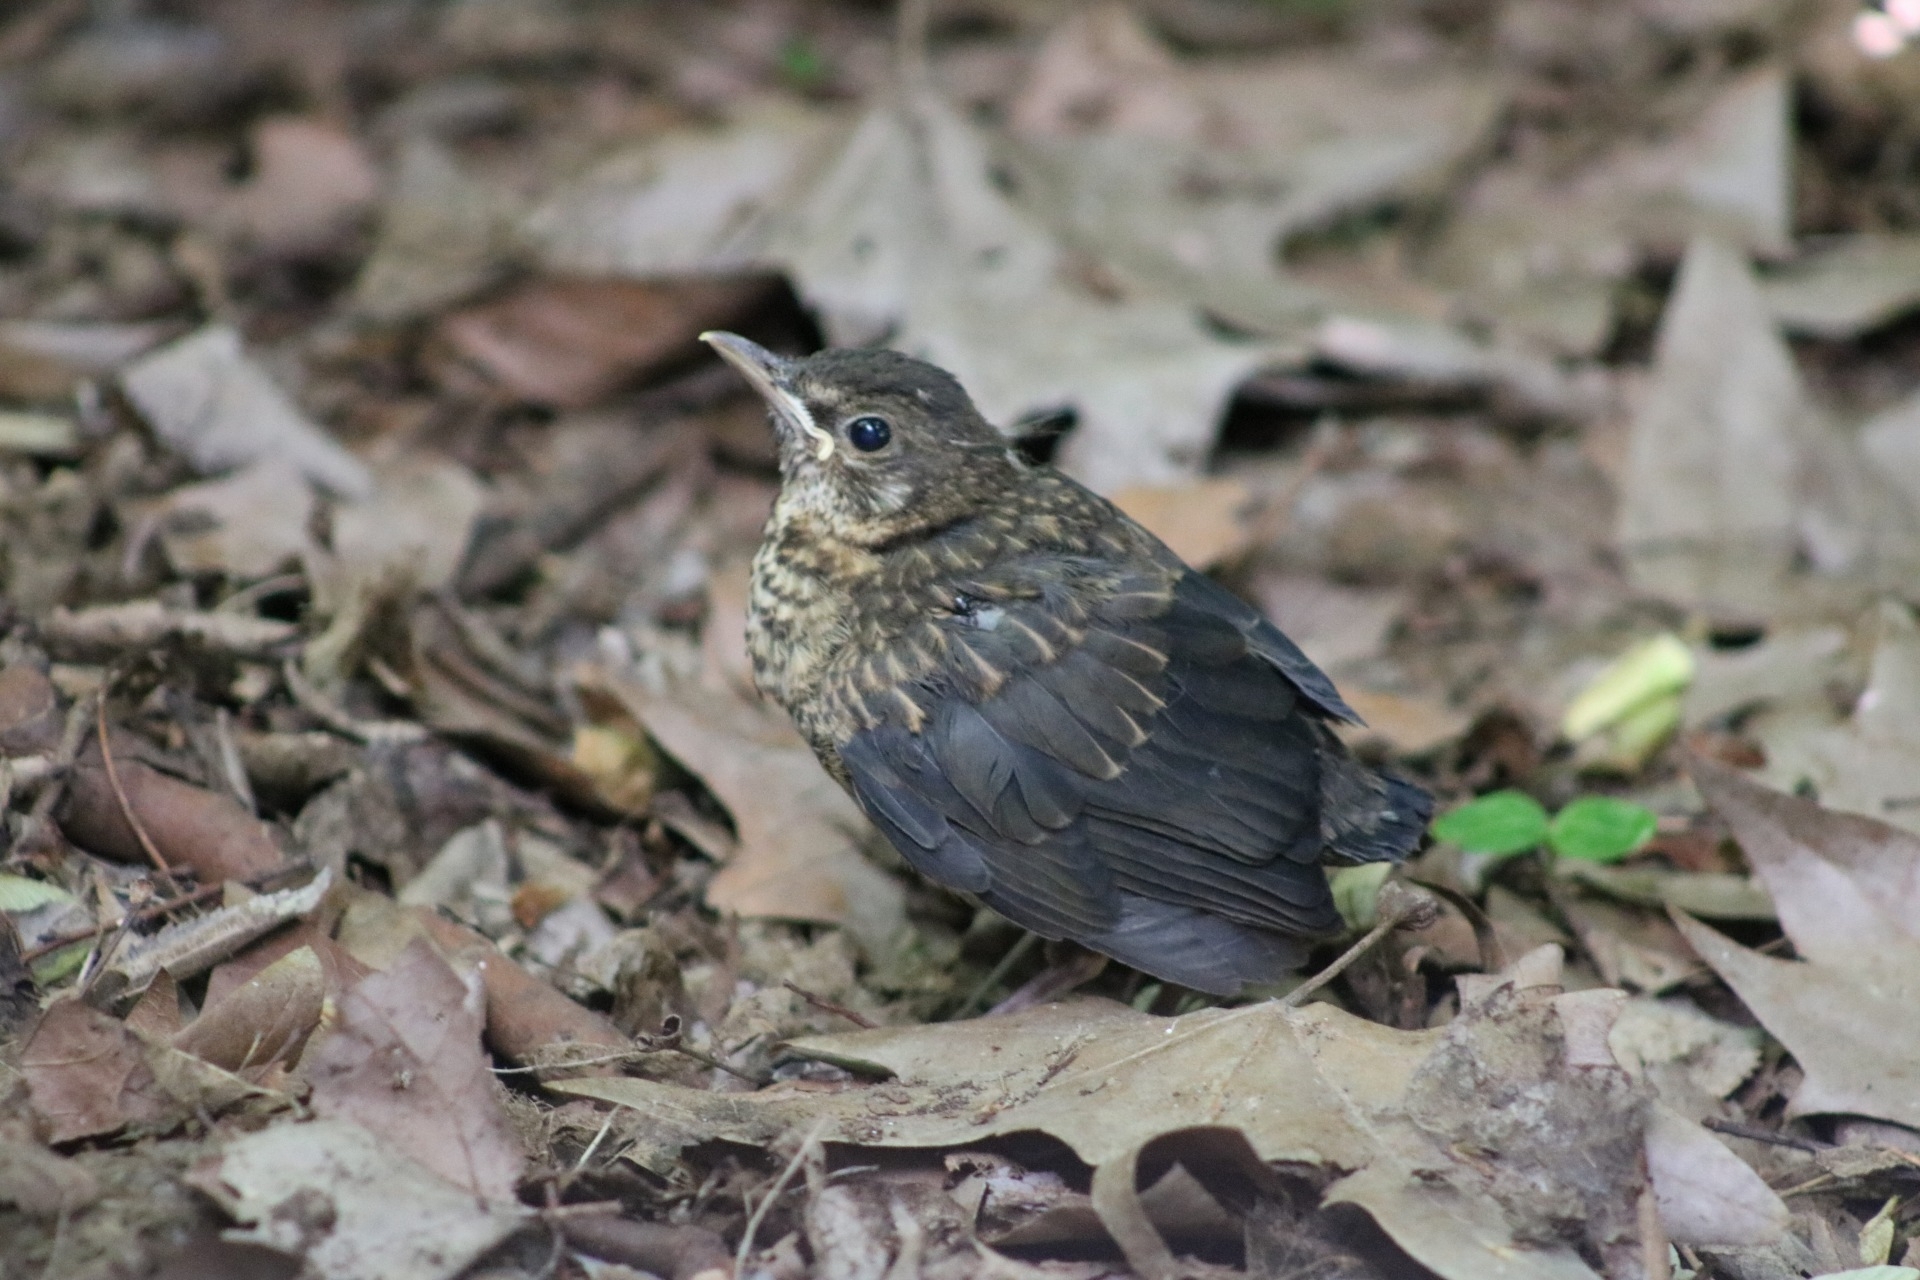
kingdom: Animalia
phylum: Chordata
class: Aves
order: Passeriformes
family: Turdidae
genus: Turdus
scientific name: Turdus merula
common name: Common blackbird
